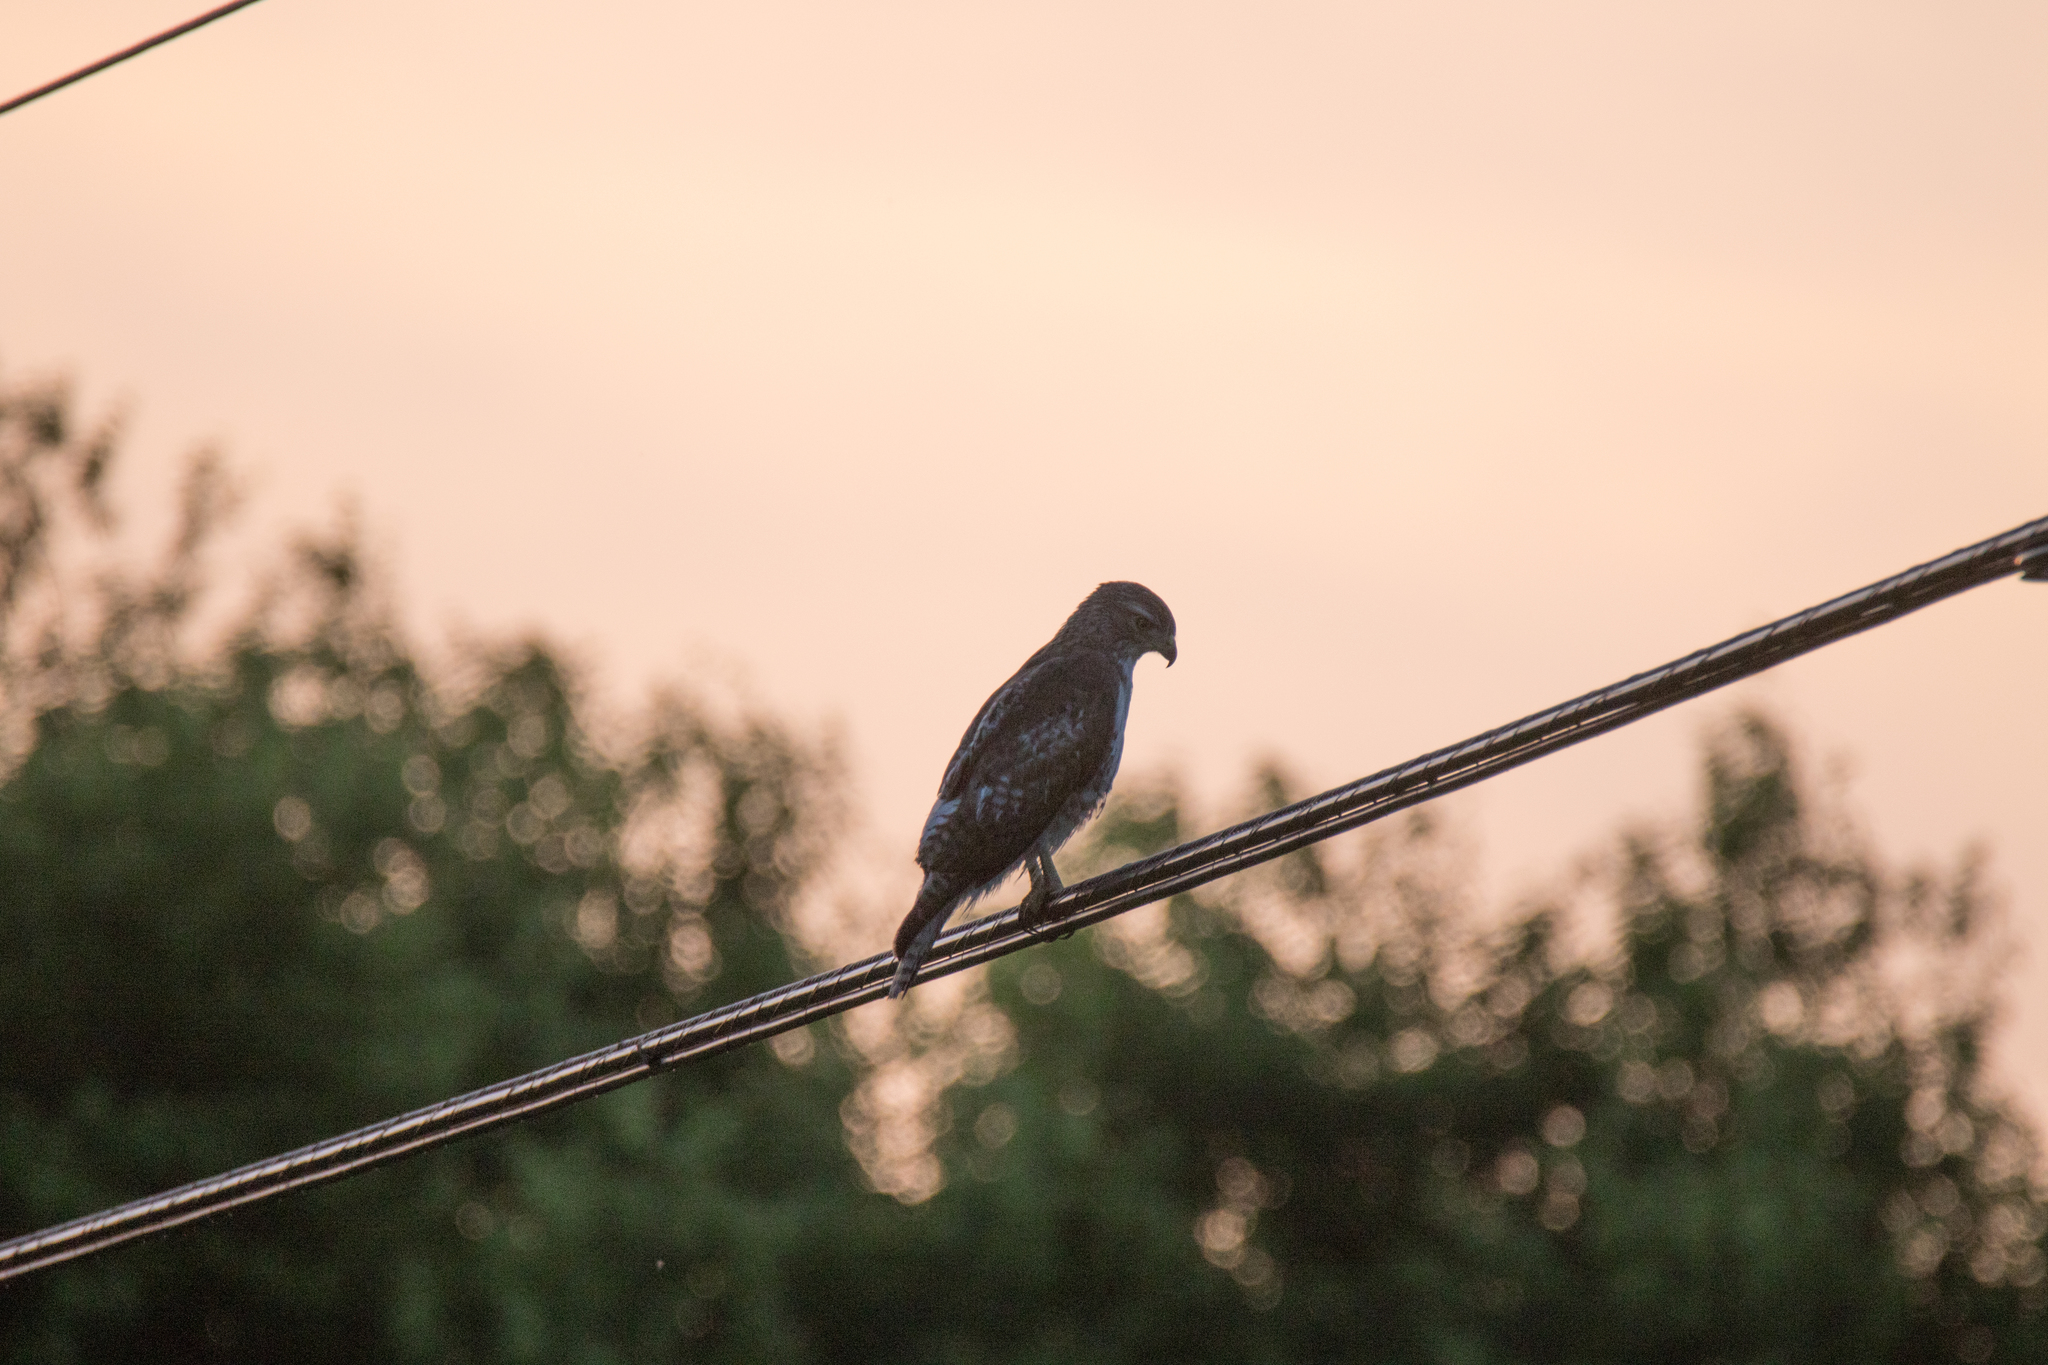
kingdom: Animalia
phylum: Chordata
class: Aves
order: Accipitriformes
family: Accipitridae
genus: Buteo
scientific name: Buteo jamaicensis
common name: Red-tailed hawk
